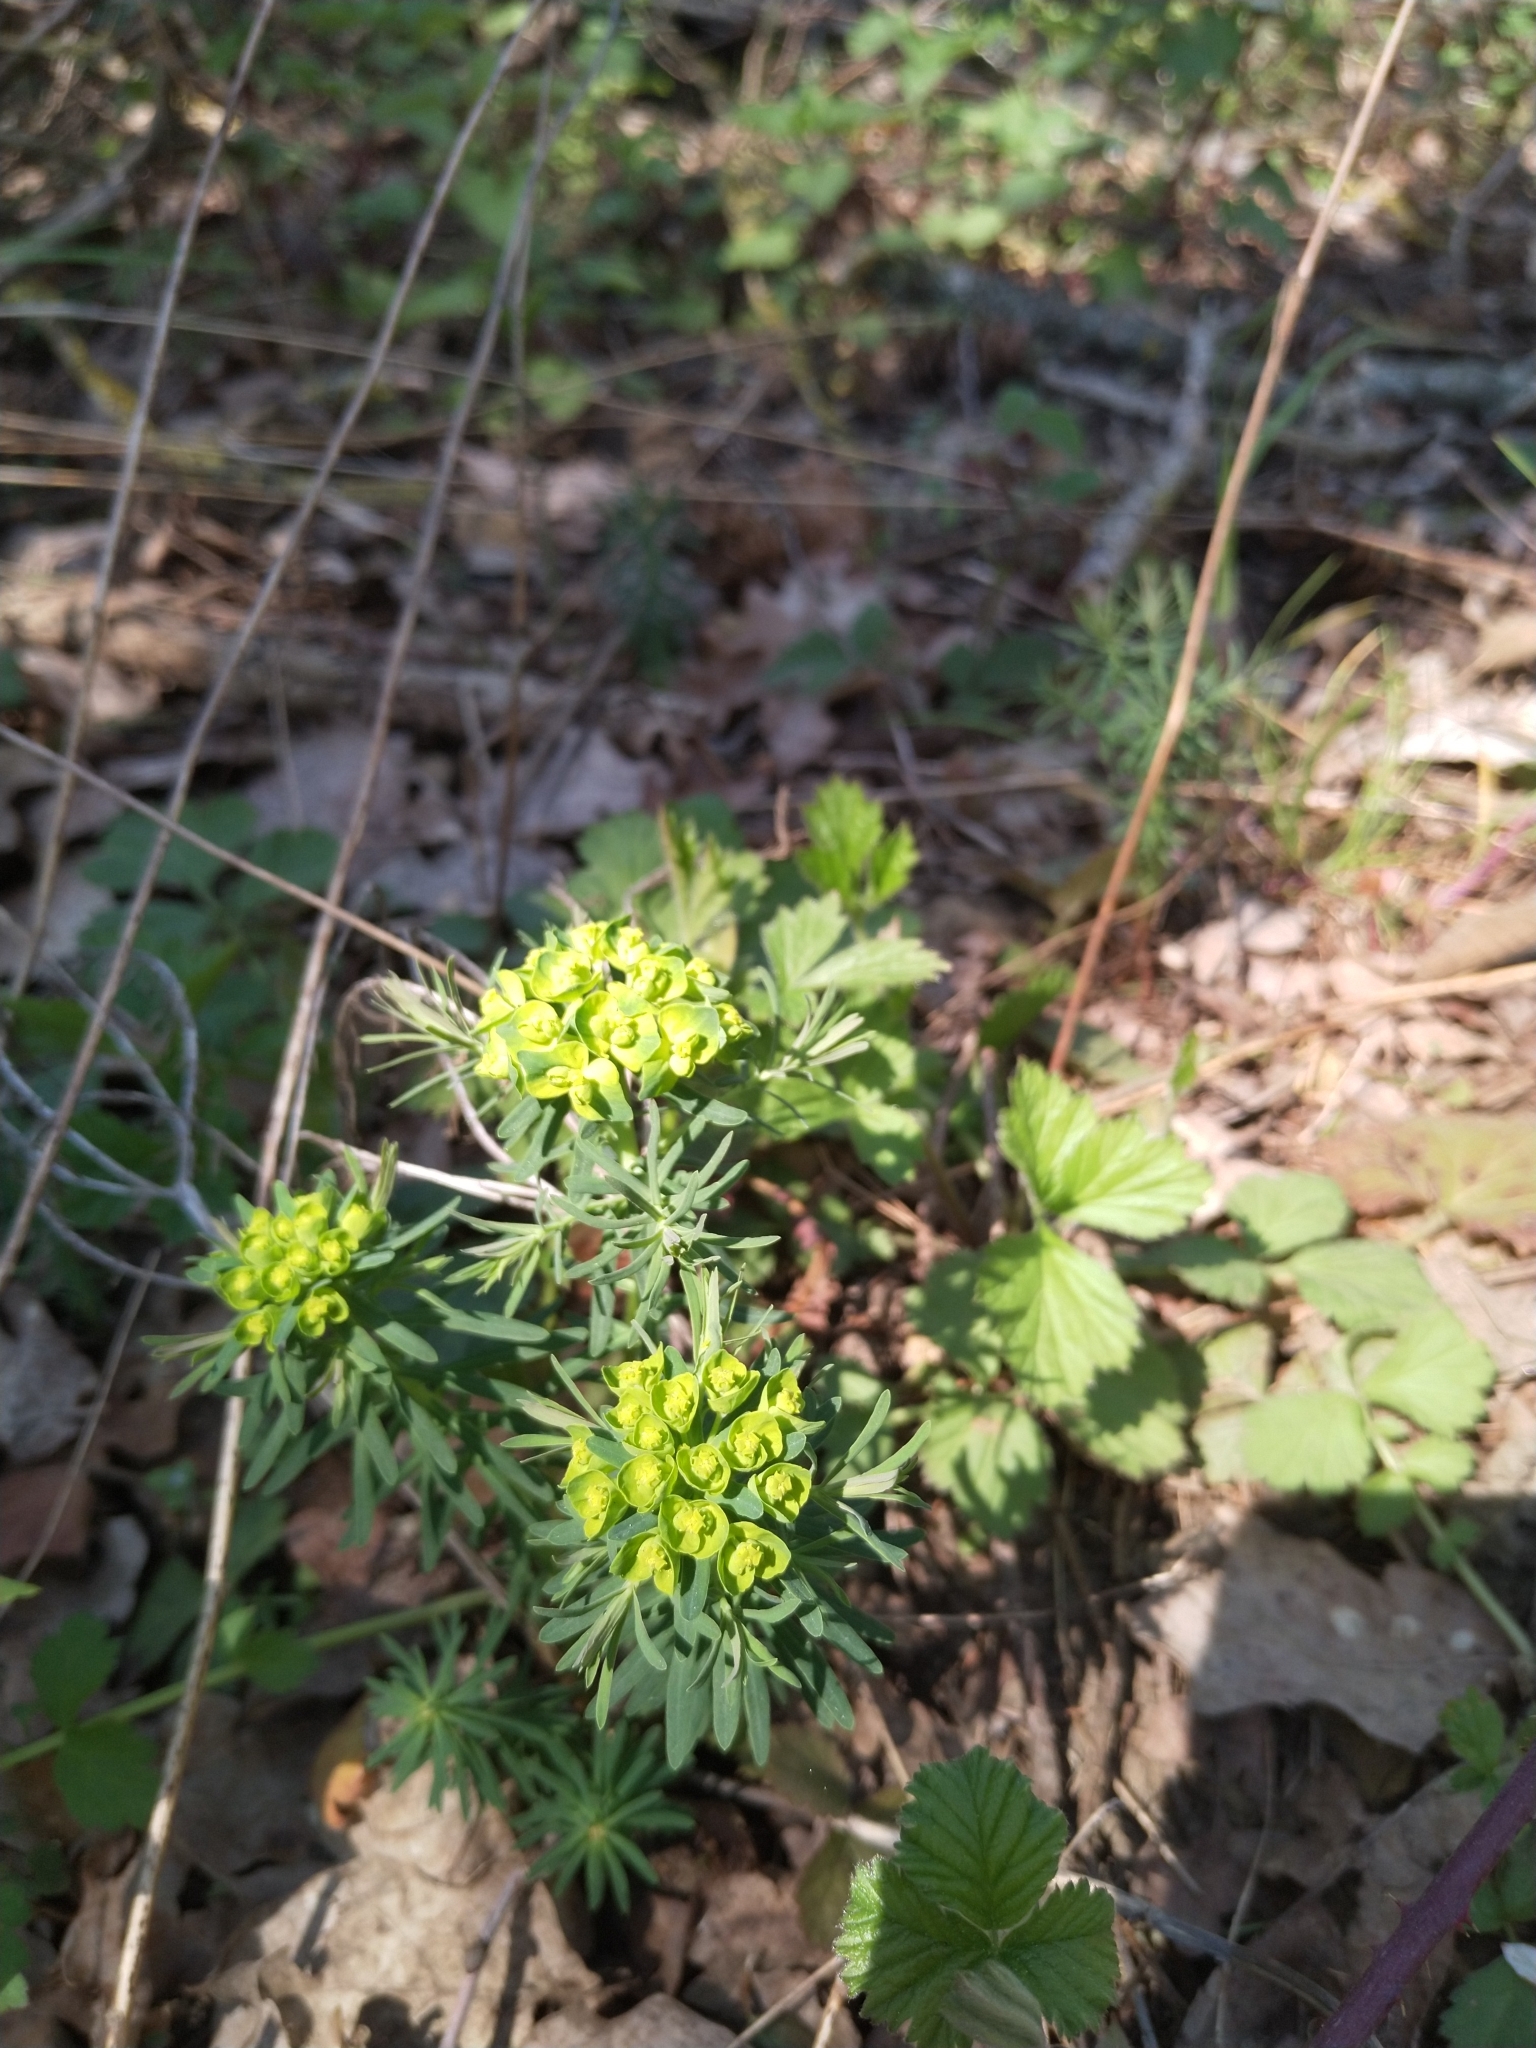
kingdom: Plantae
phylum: Tracheophyta
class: Magnoliopsida
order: Malpighiales
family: Euphorbiaceae
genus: Euphorbia
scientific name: Euphorbia cyparissias
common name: Cypress spurge
